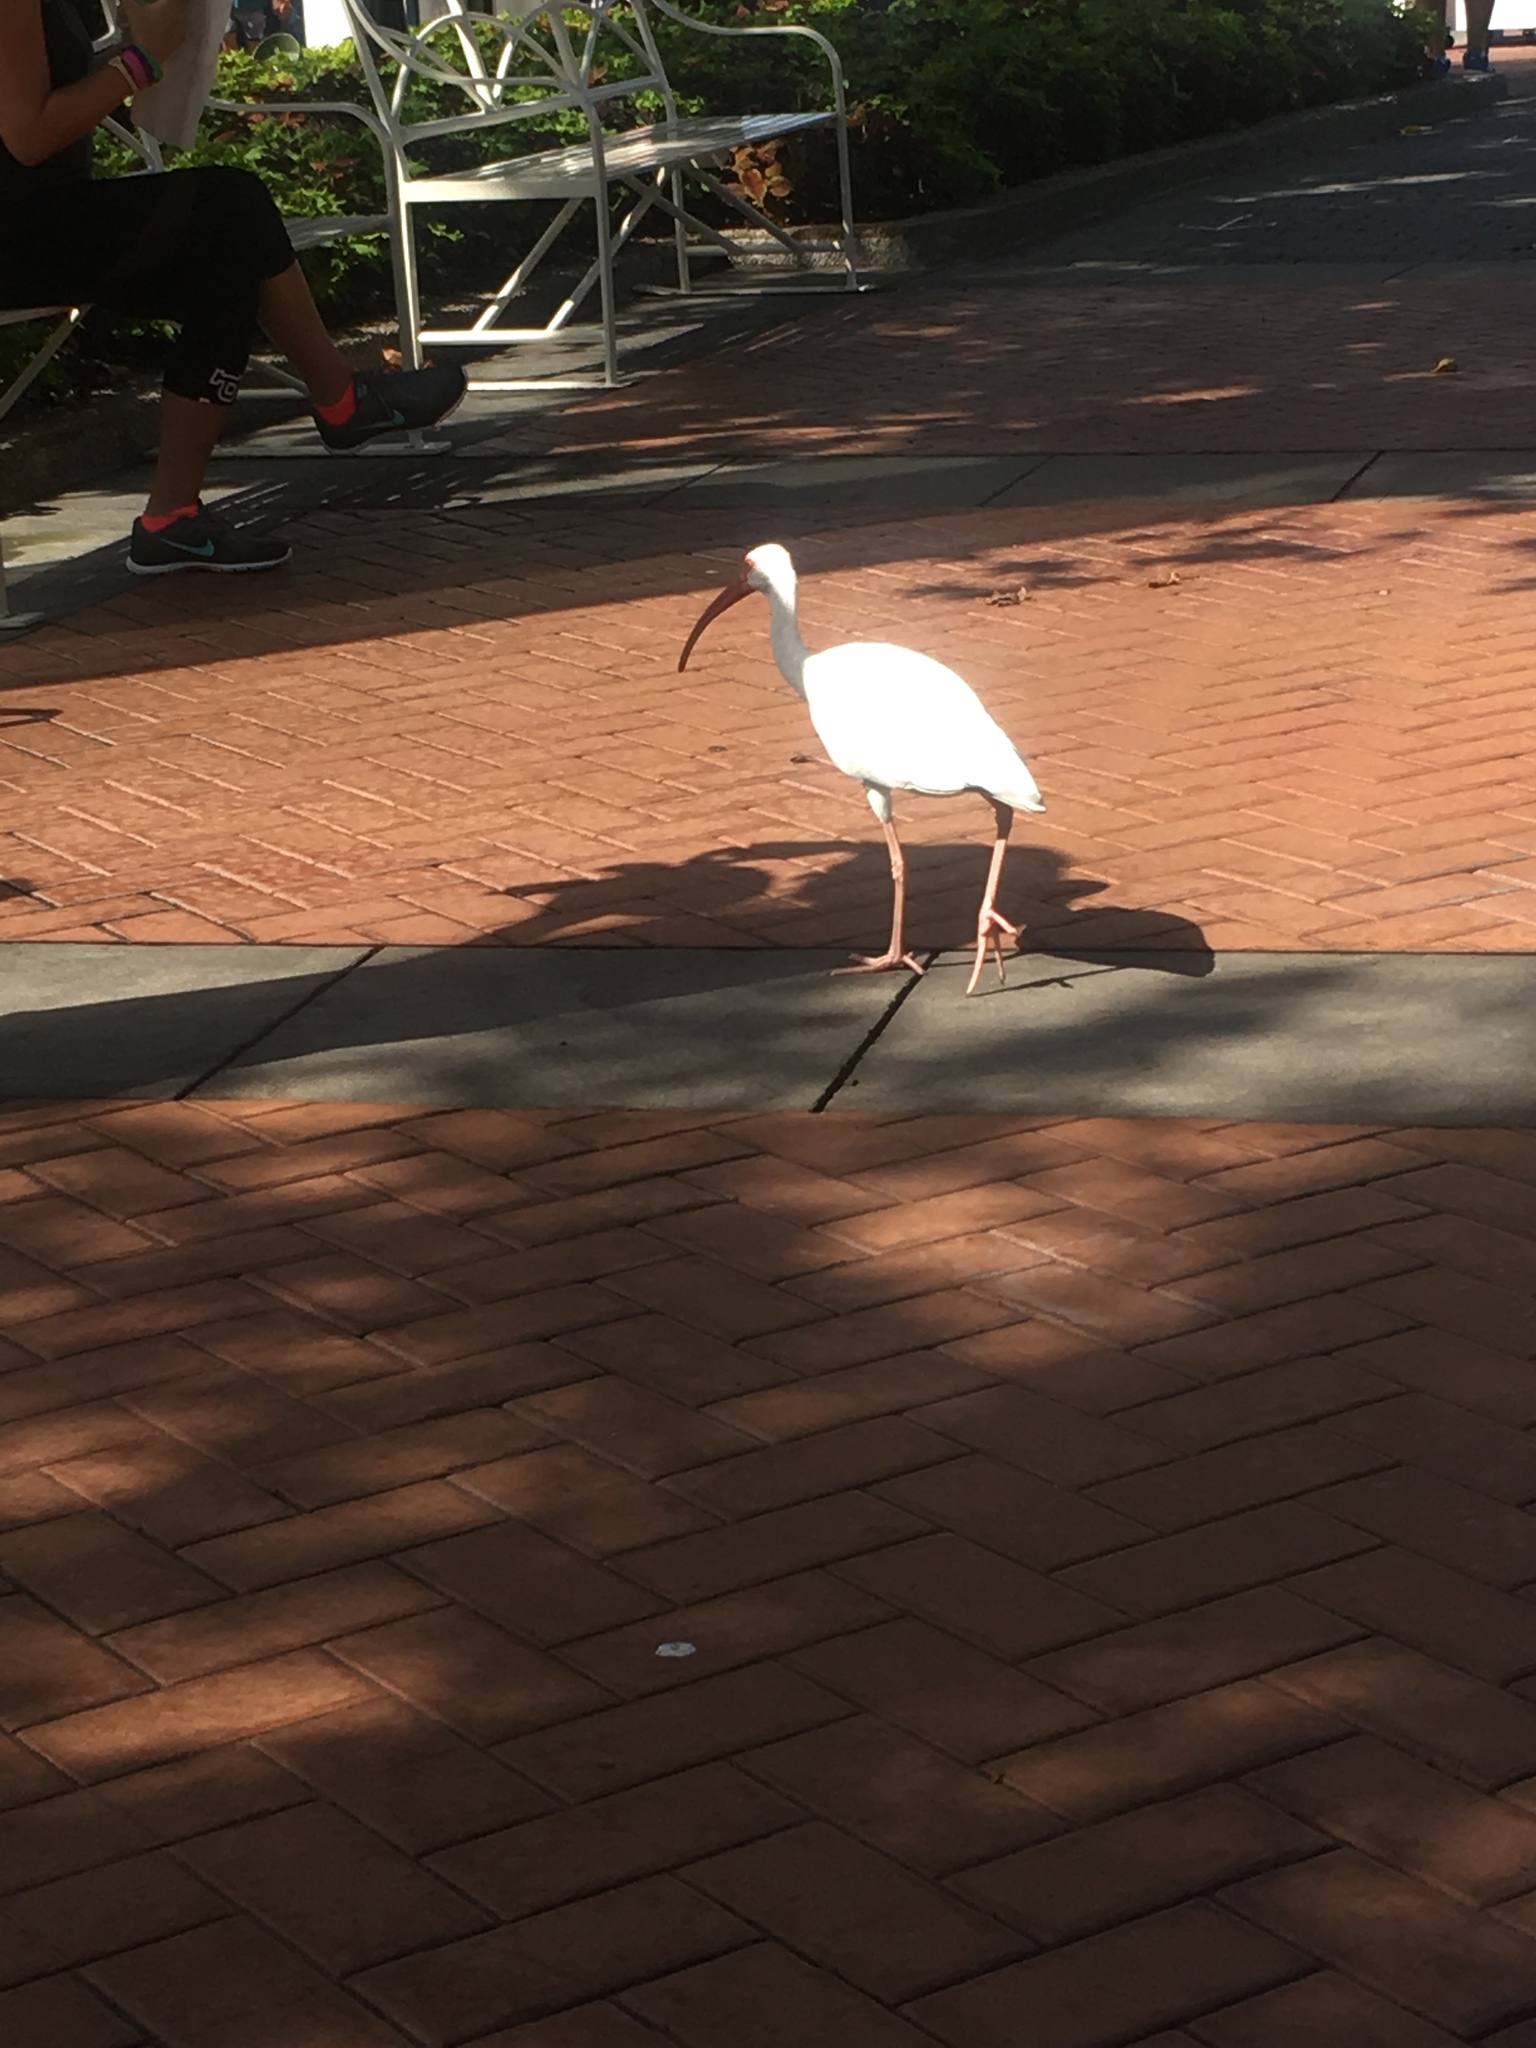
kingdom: Animalia
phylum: Chordata
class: Aves
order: Pelecaniformes
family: Threskiornithidae
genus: Eudocimus
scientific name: Eudocimus albus
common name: White ibis
